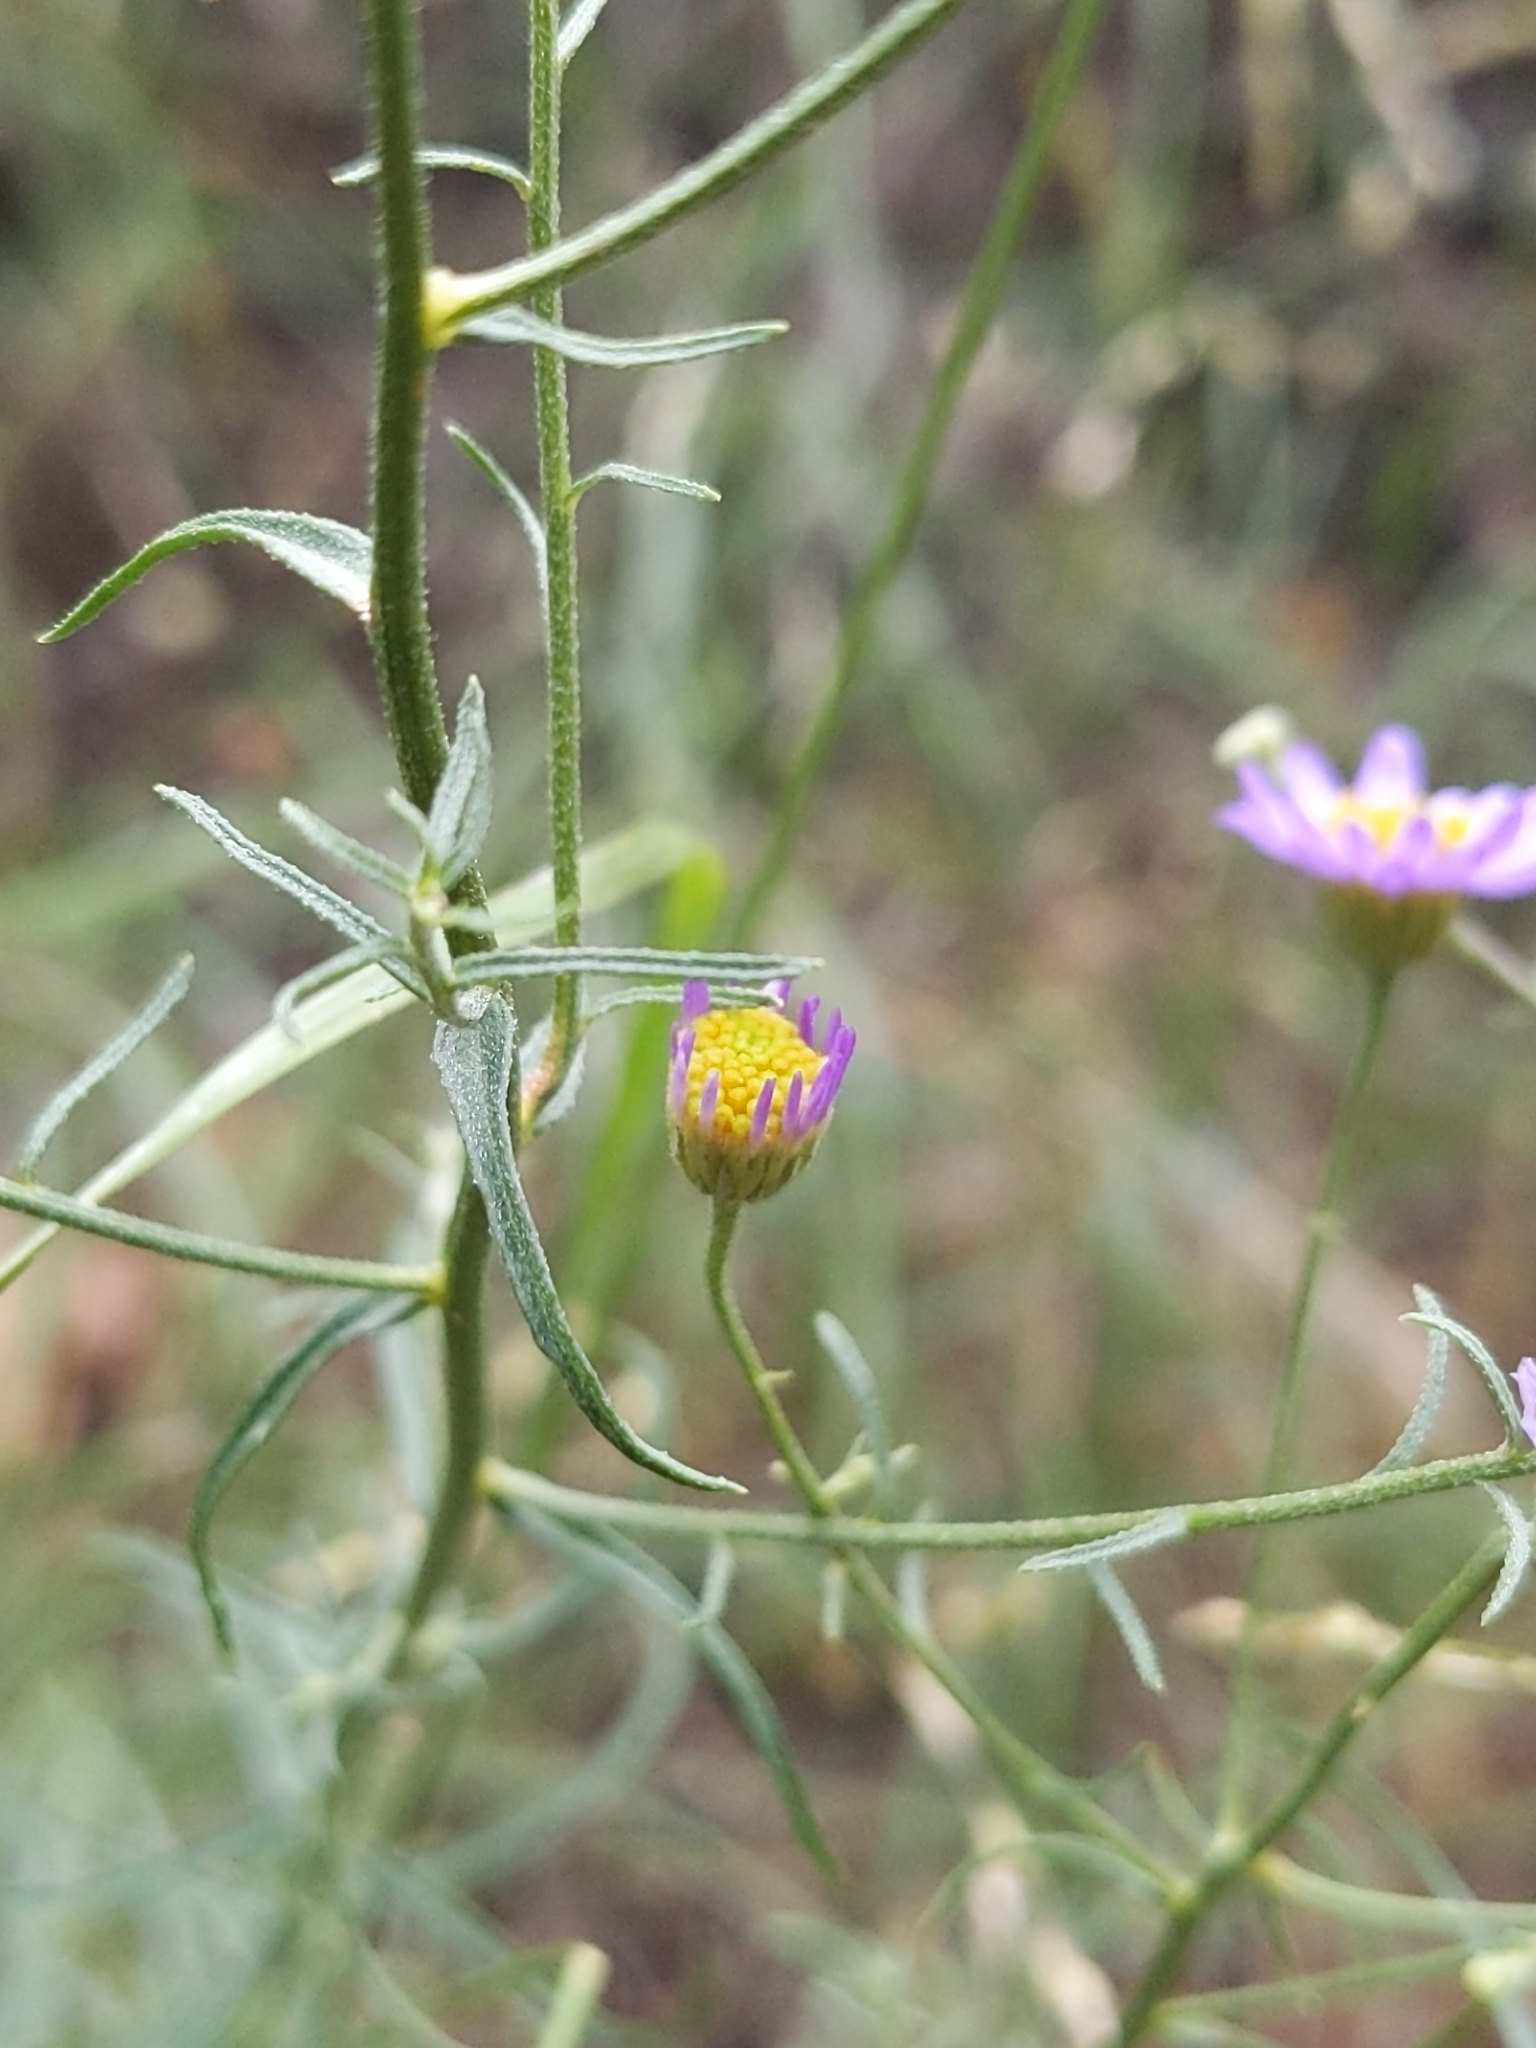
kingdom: Plantae
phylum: Tracheophyta
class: Magnoliopsida
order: Asterales
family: Asteraceae
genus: Erigeron
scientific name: Erigeron foliosus
